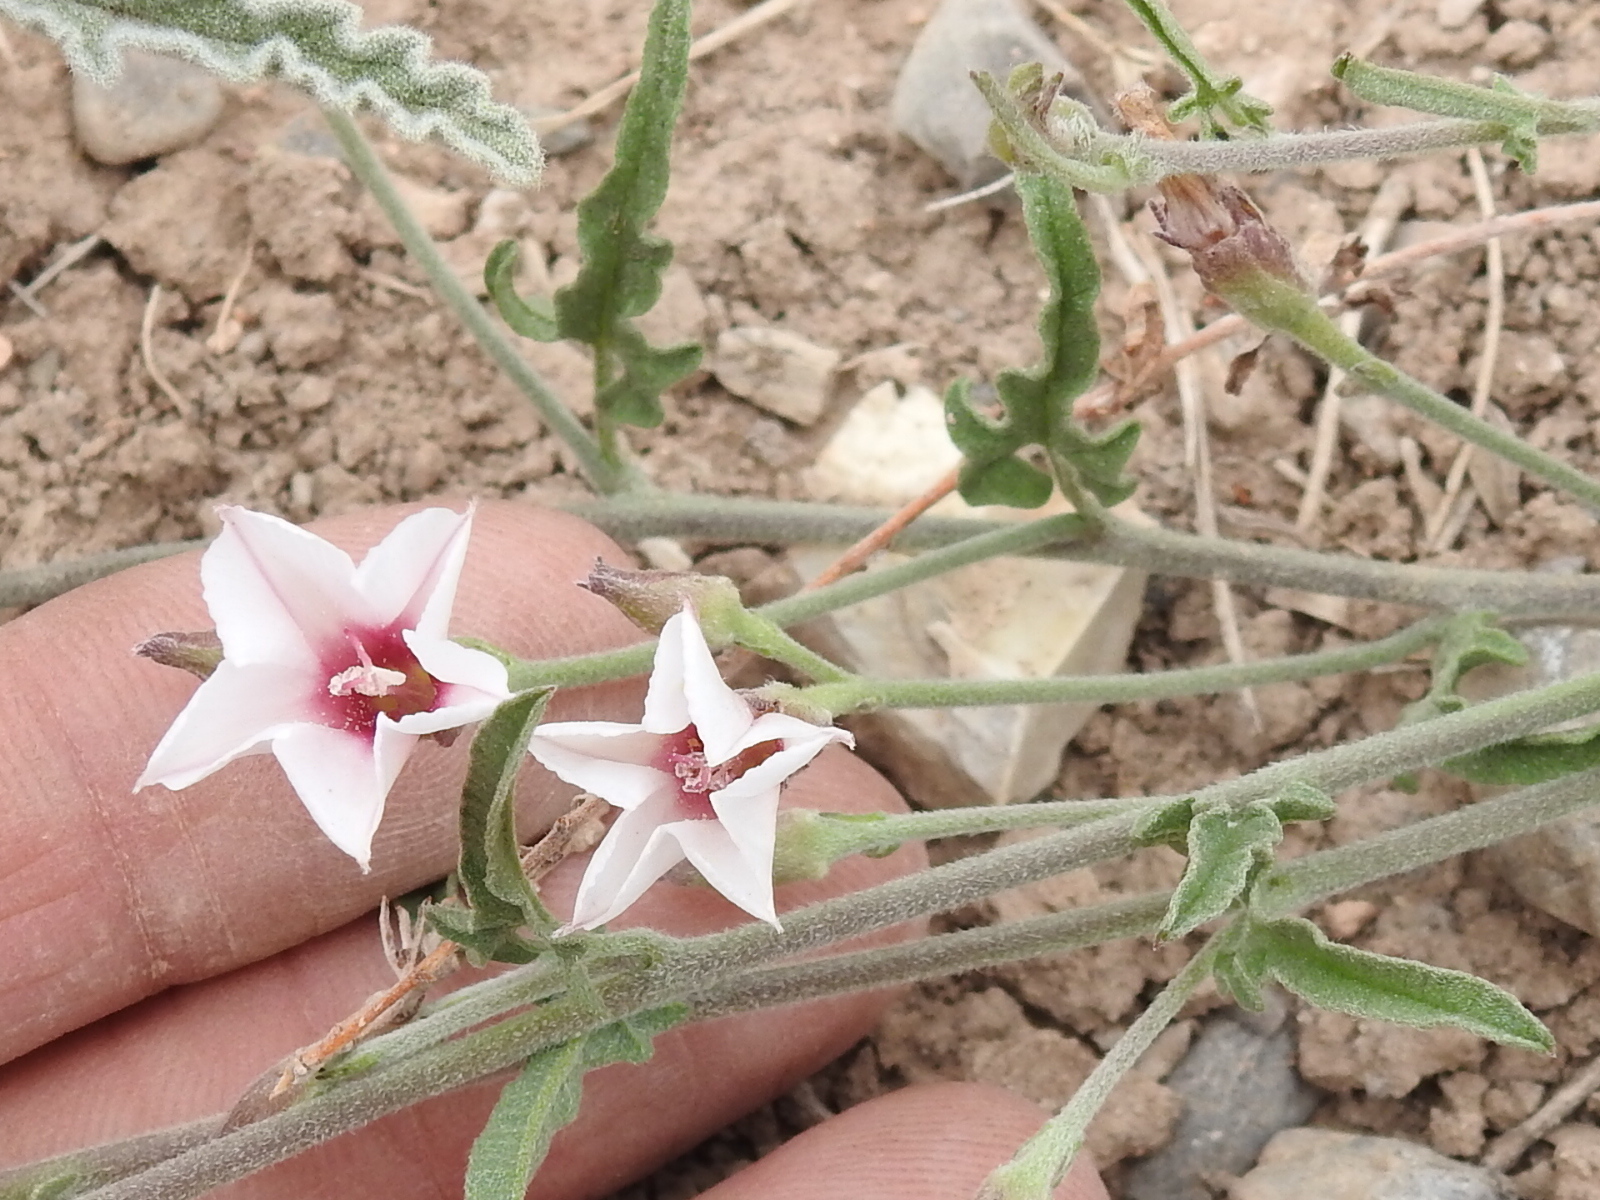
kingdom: Plantae
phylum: Tracheophyta
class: Magnoliopsida
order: Solanales
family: Convolvulaceae
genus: Convolvulus
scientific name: Convolvulus equitans
